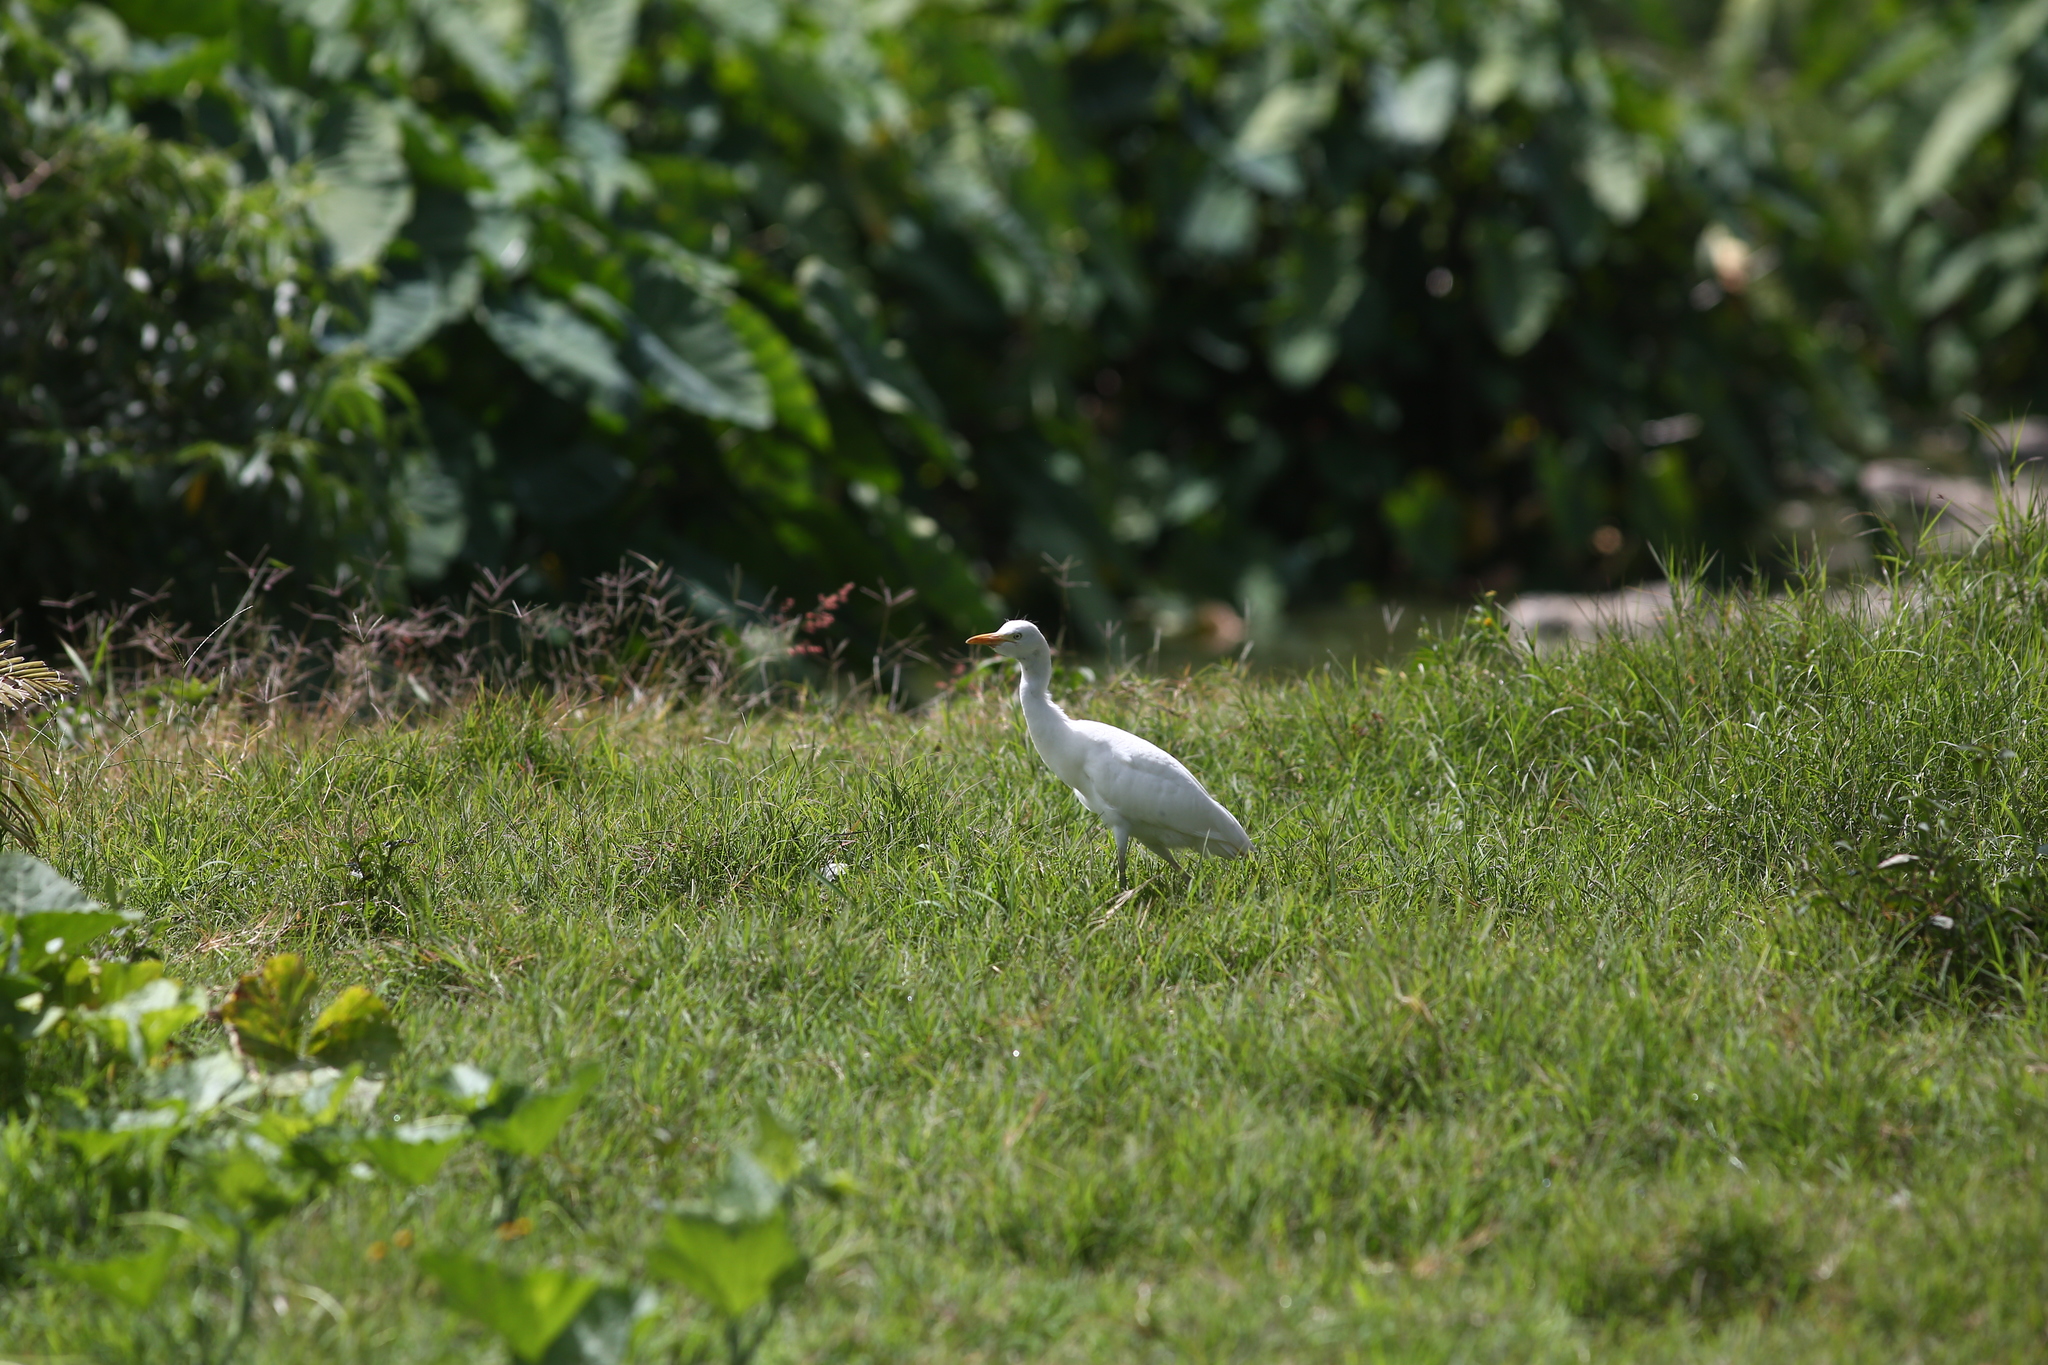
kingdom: Animalia
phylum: Chordata
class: Aves
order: Pelecaniformes
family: Ardeidae
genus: Bubulcus
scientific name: Bubulcus ibis
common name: Cattle egret
